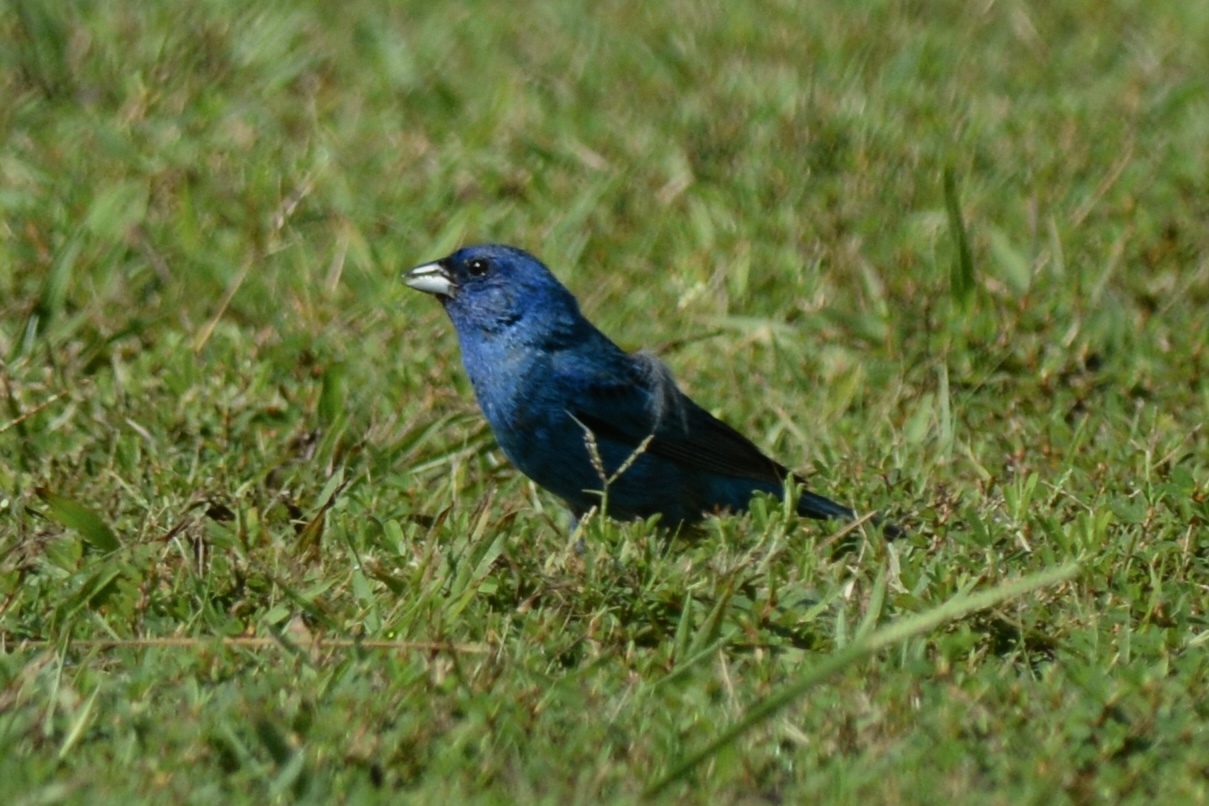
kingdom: Animalia
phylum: Chordata
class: Aves
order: Passeriformes
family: Cardinalidae
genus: Passerina
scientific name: Passerina cyanea
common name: Indigo bunting
